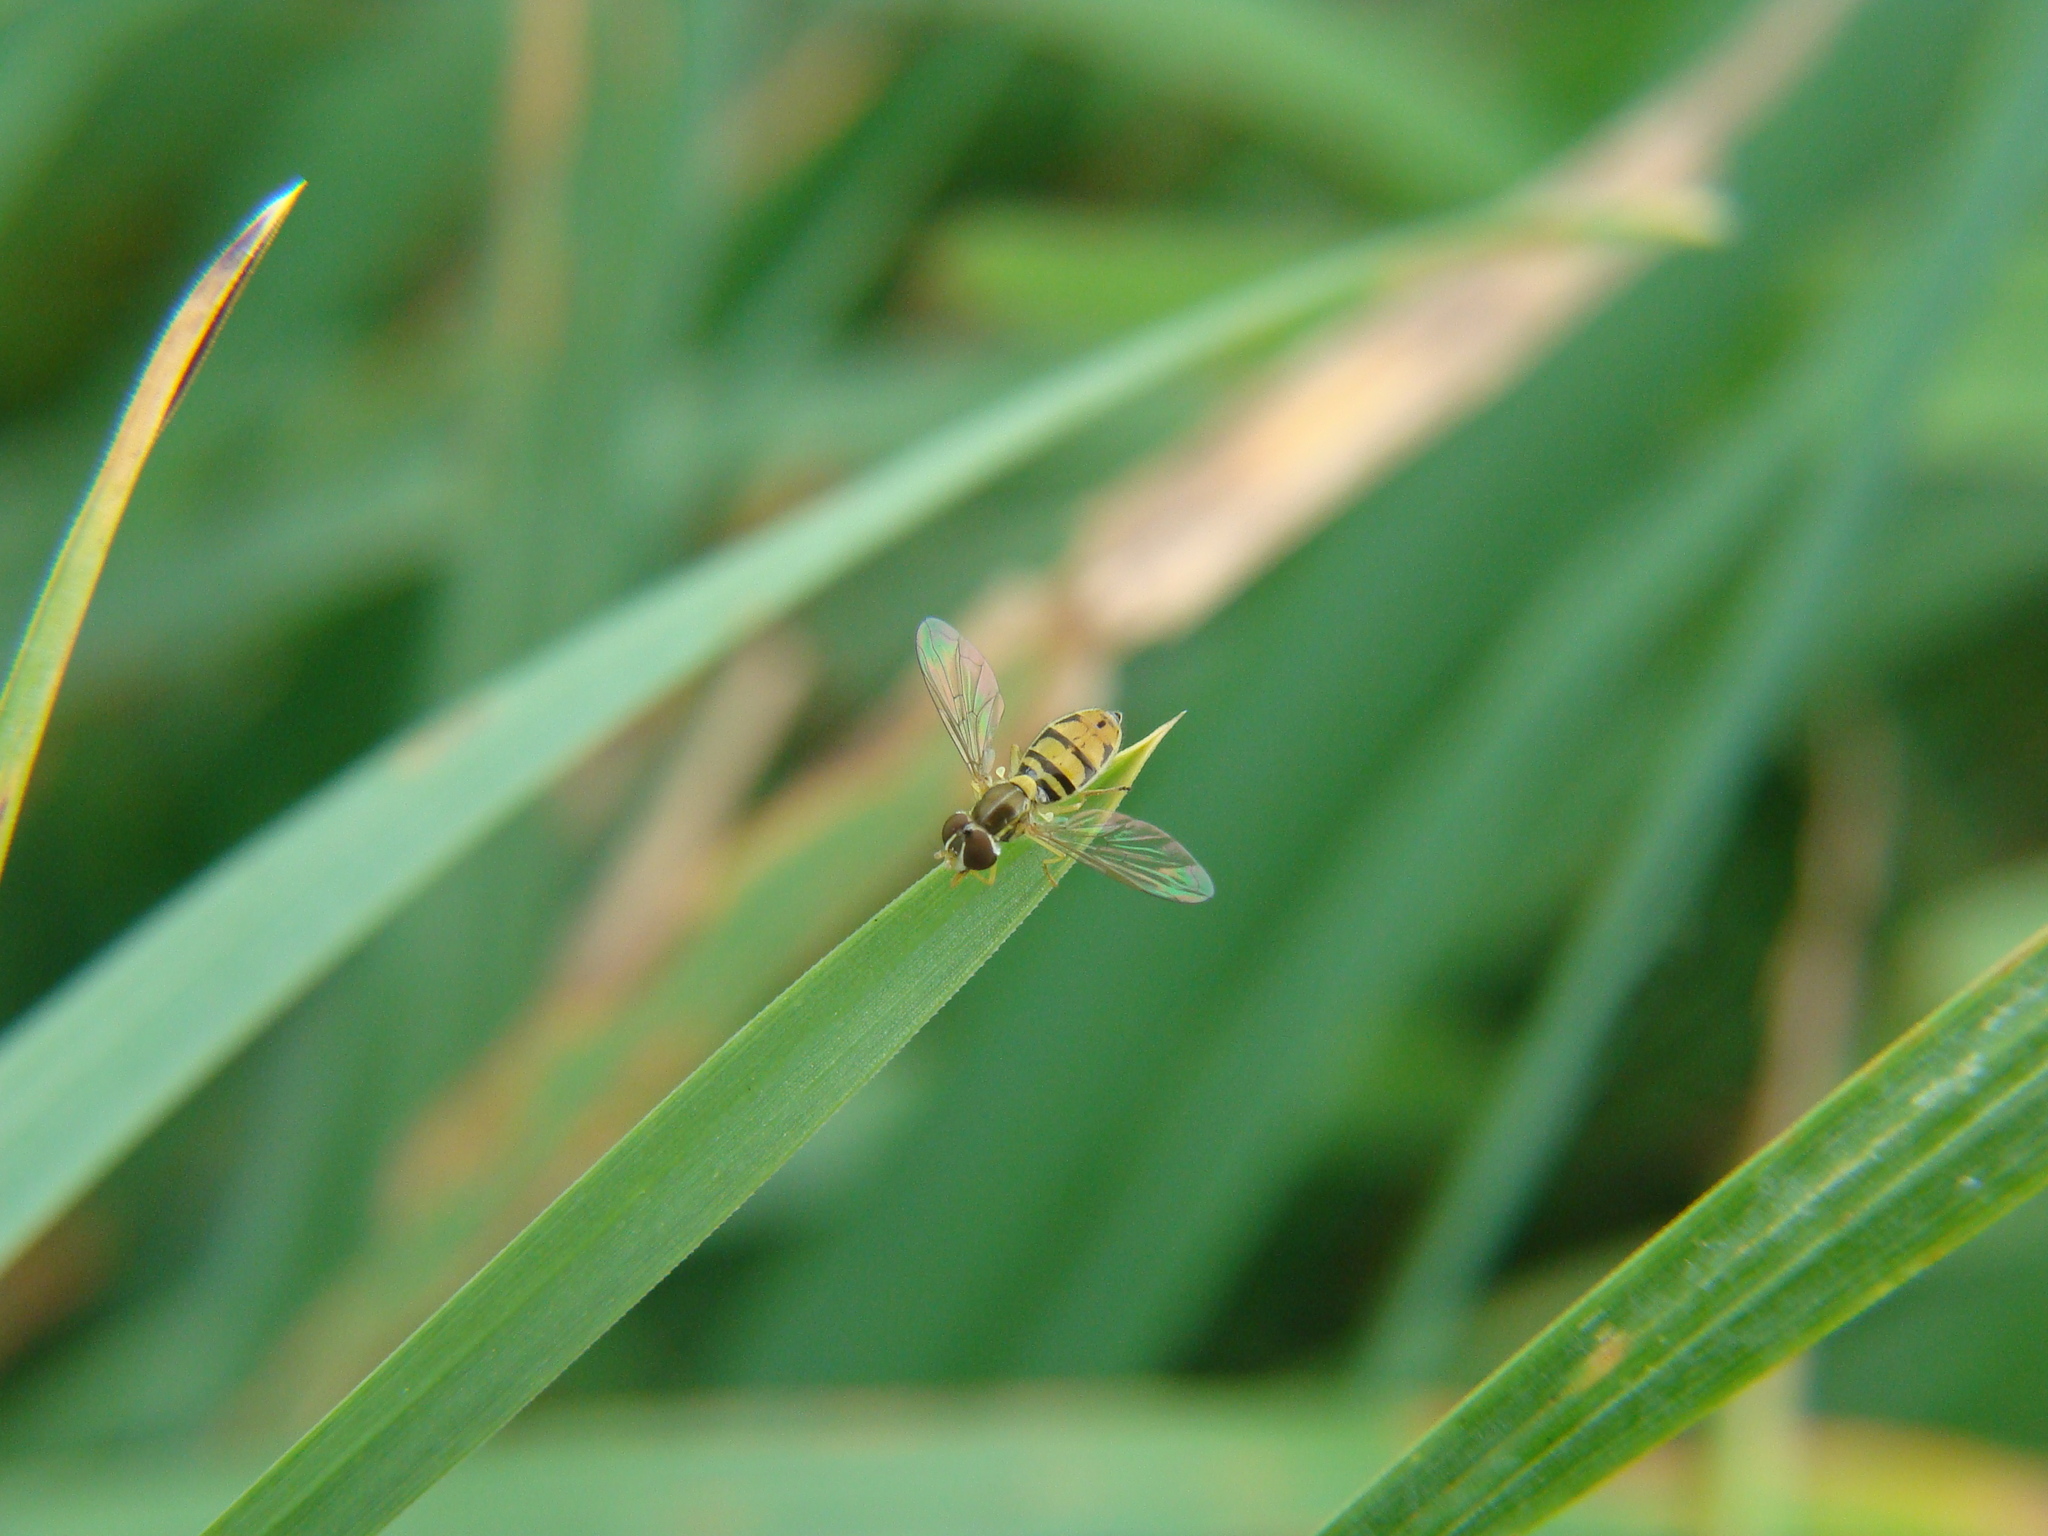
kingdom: Animalia
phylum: Arthropoda
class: Insecta
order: Diptera
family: Syrphidae
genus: Toxomerus
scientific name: Toxomerus marginatus
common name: Syrphid fly
